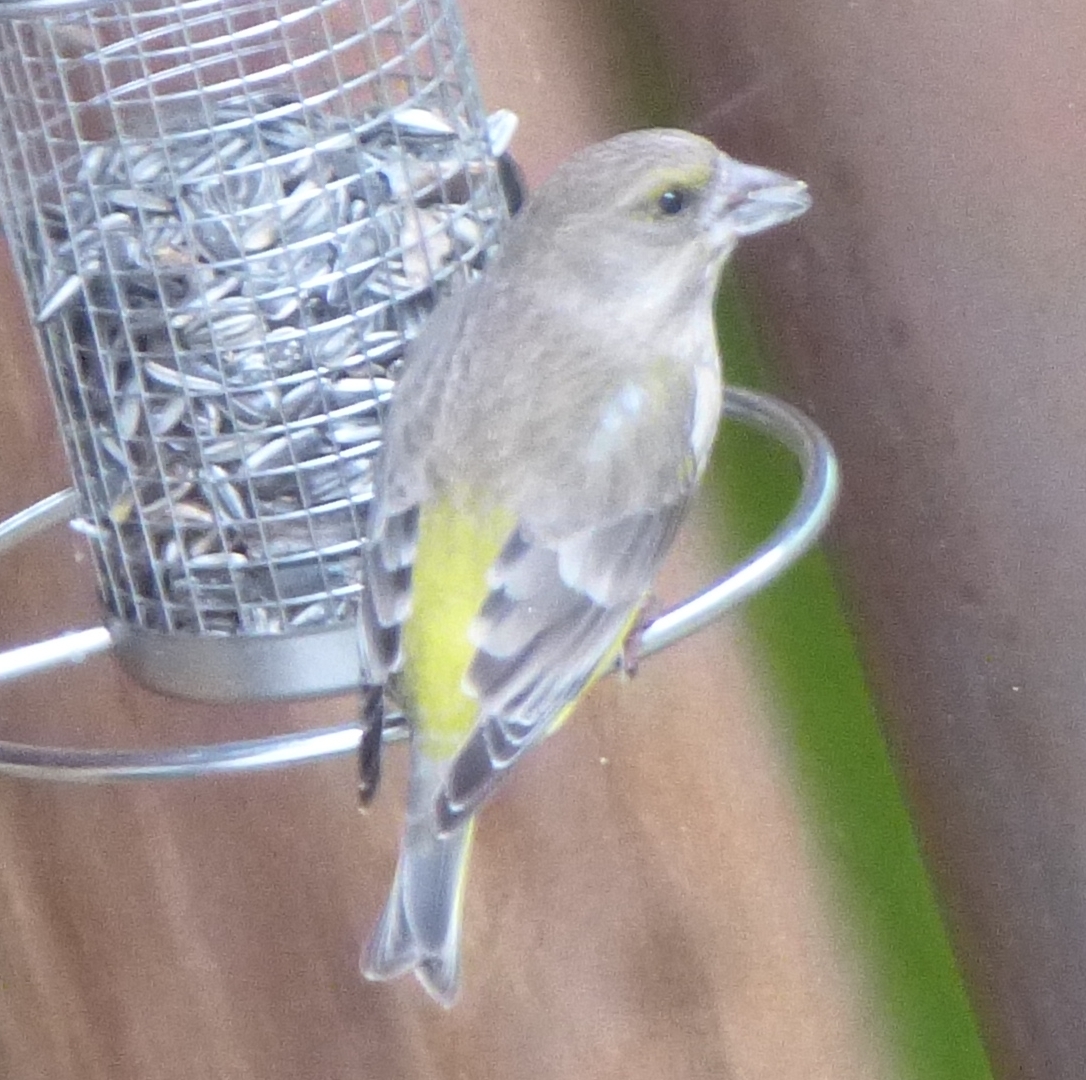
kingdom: Plantae
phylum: Tracheophyta
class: Liliopsida
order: Poales
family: Poaceae
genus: Chloris
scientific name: Chloris chloris
